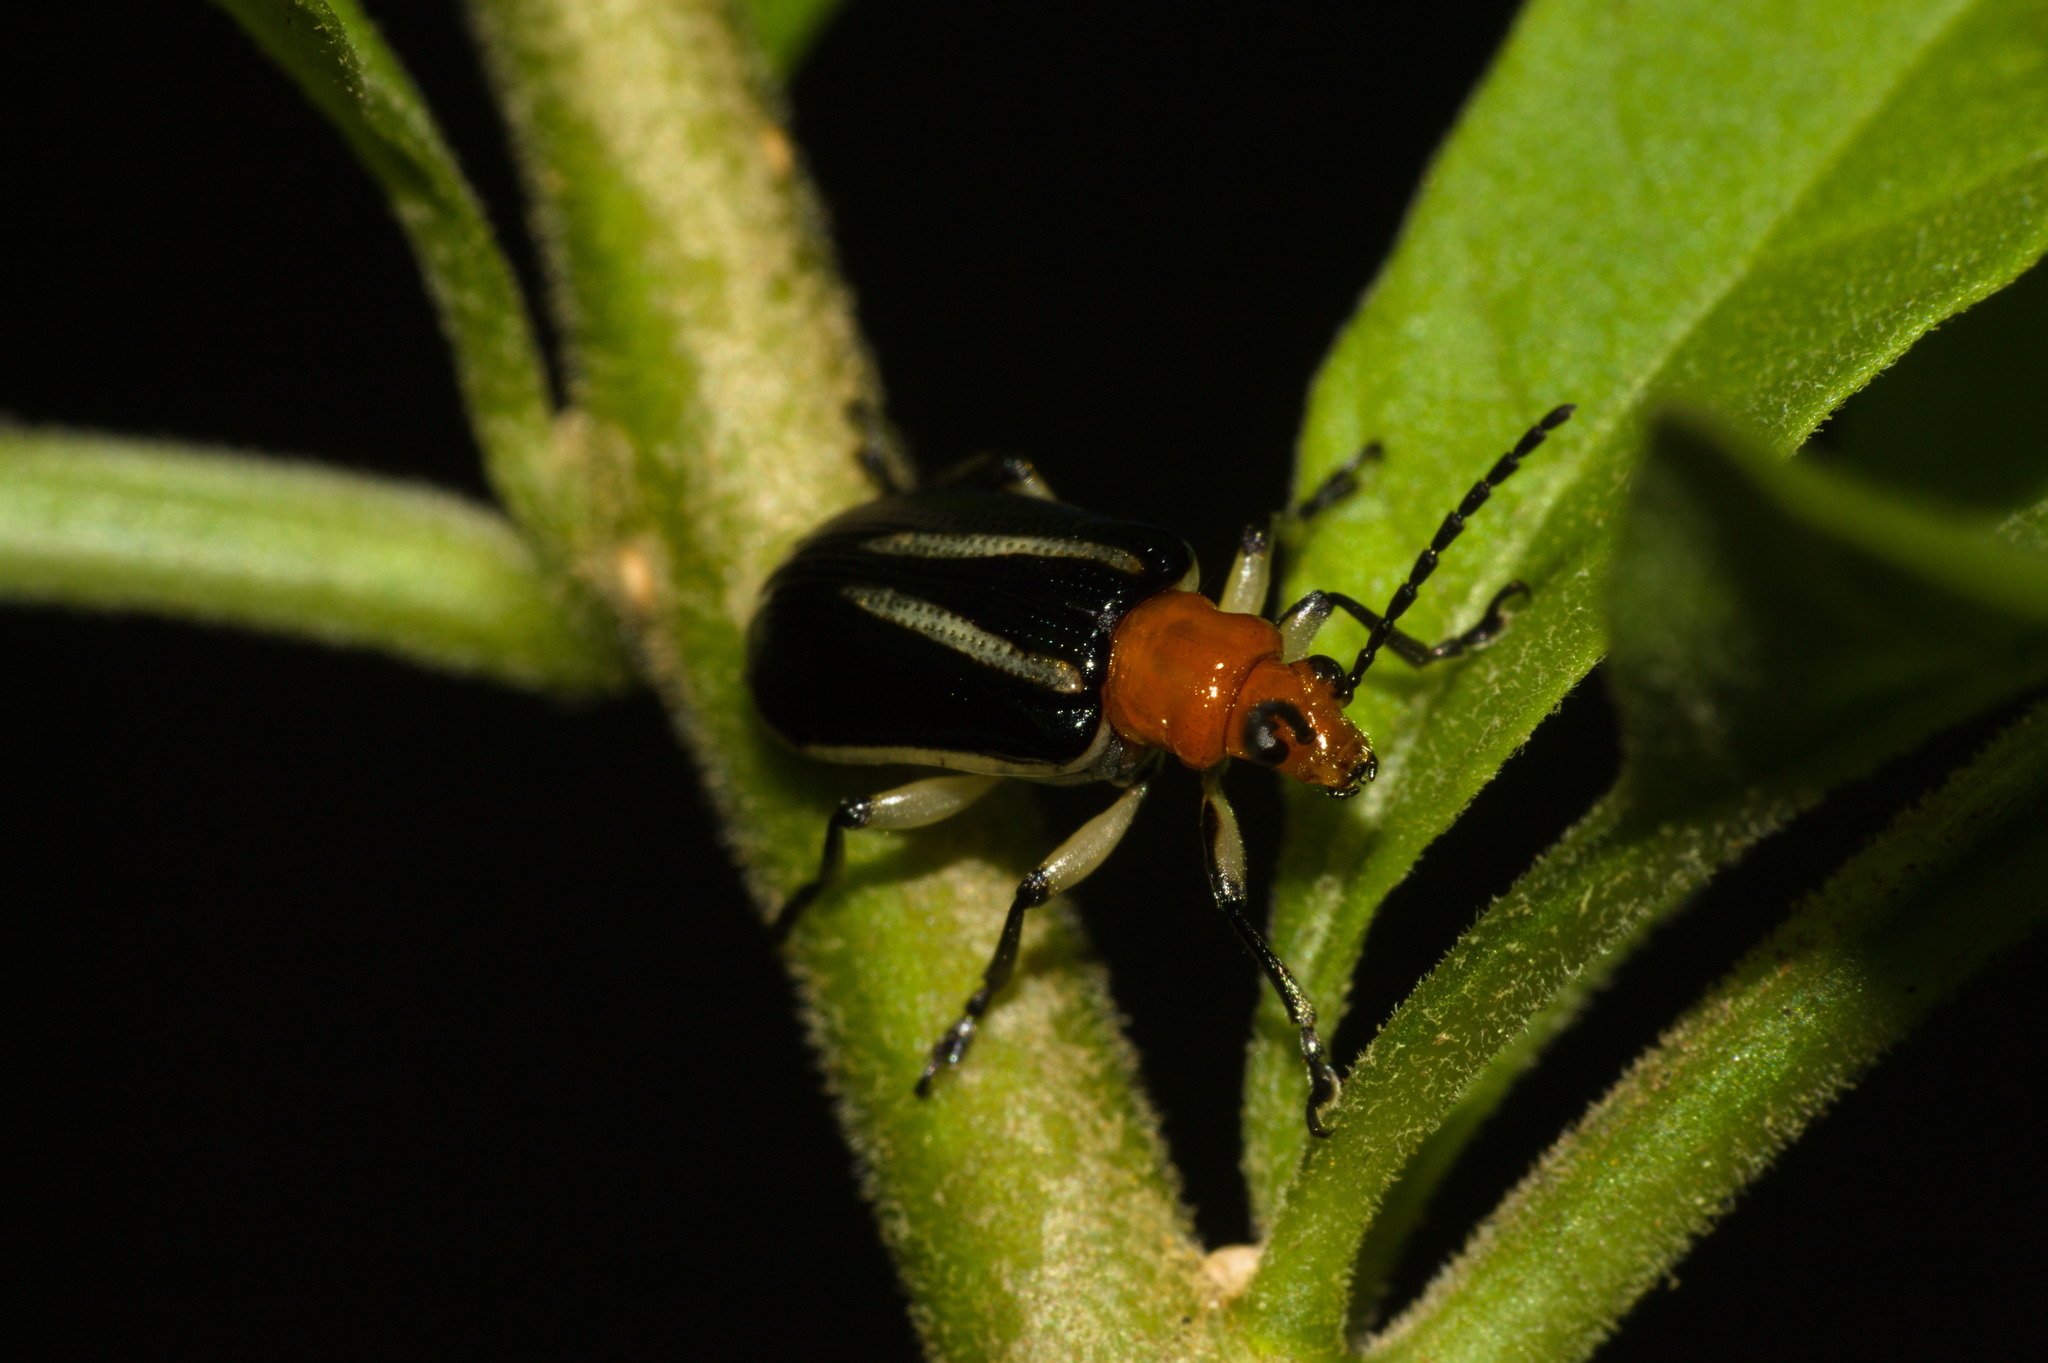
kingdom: Animalia
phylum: Arthropoda
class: Insecta
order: Coleoptera
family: Chrysomelidae
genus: Stolas
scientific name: Stolas chalybaea
